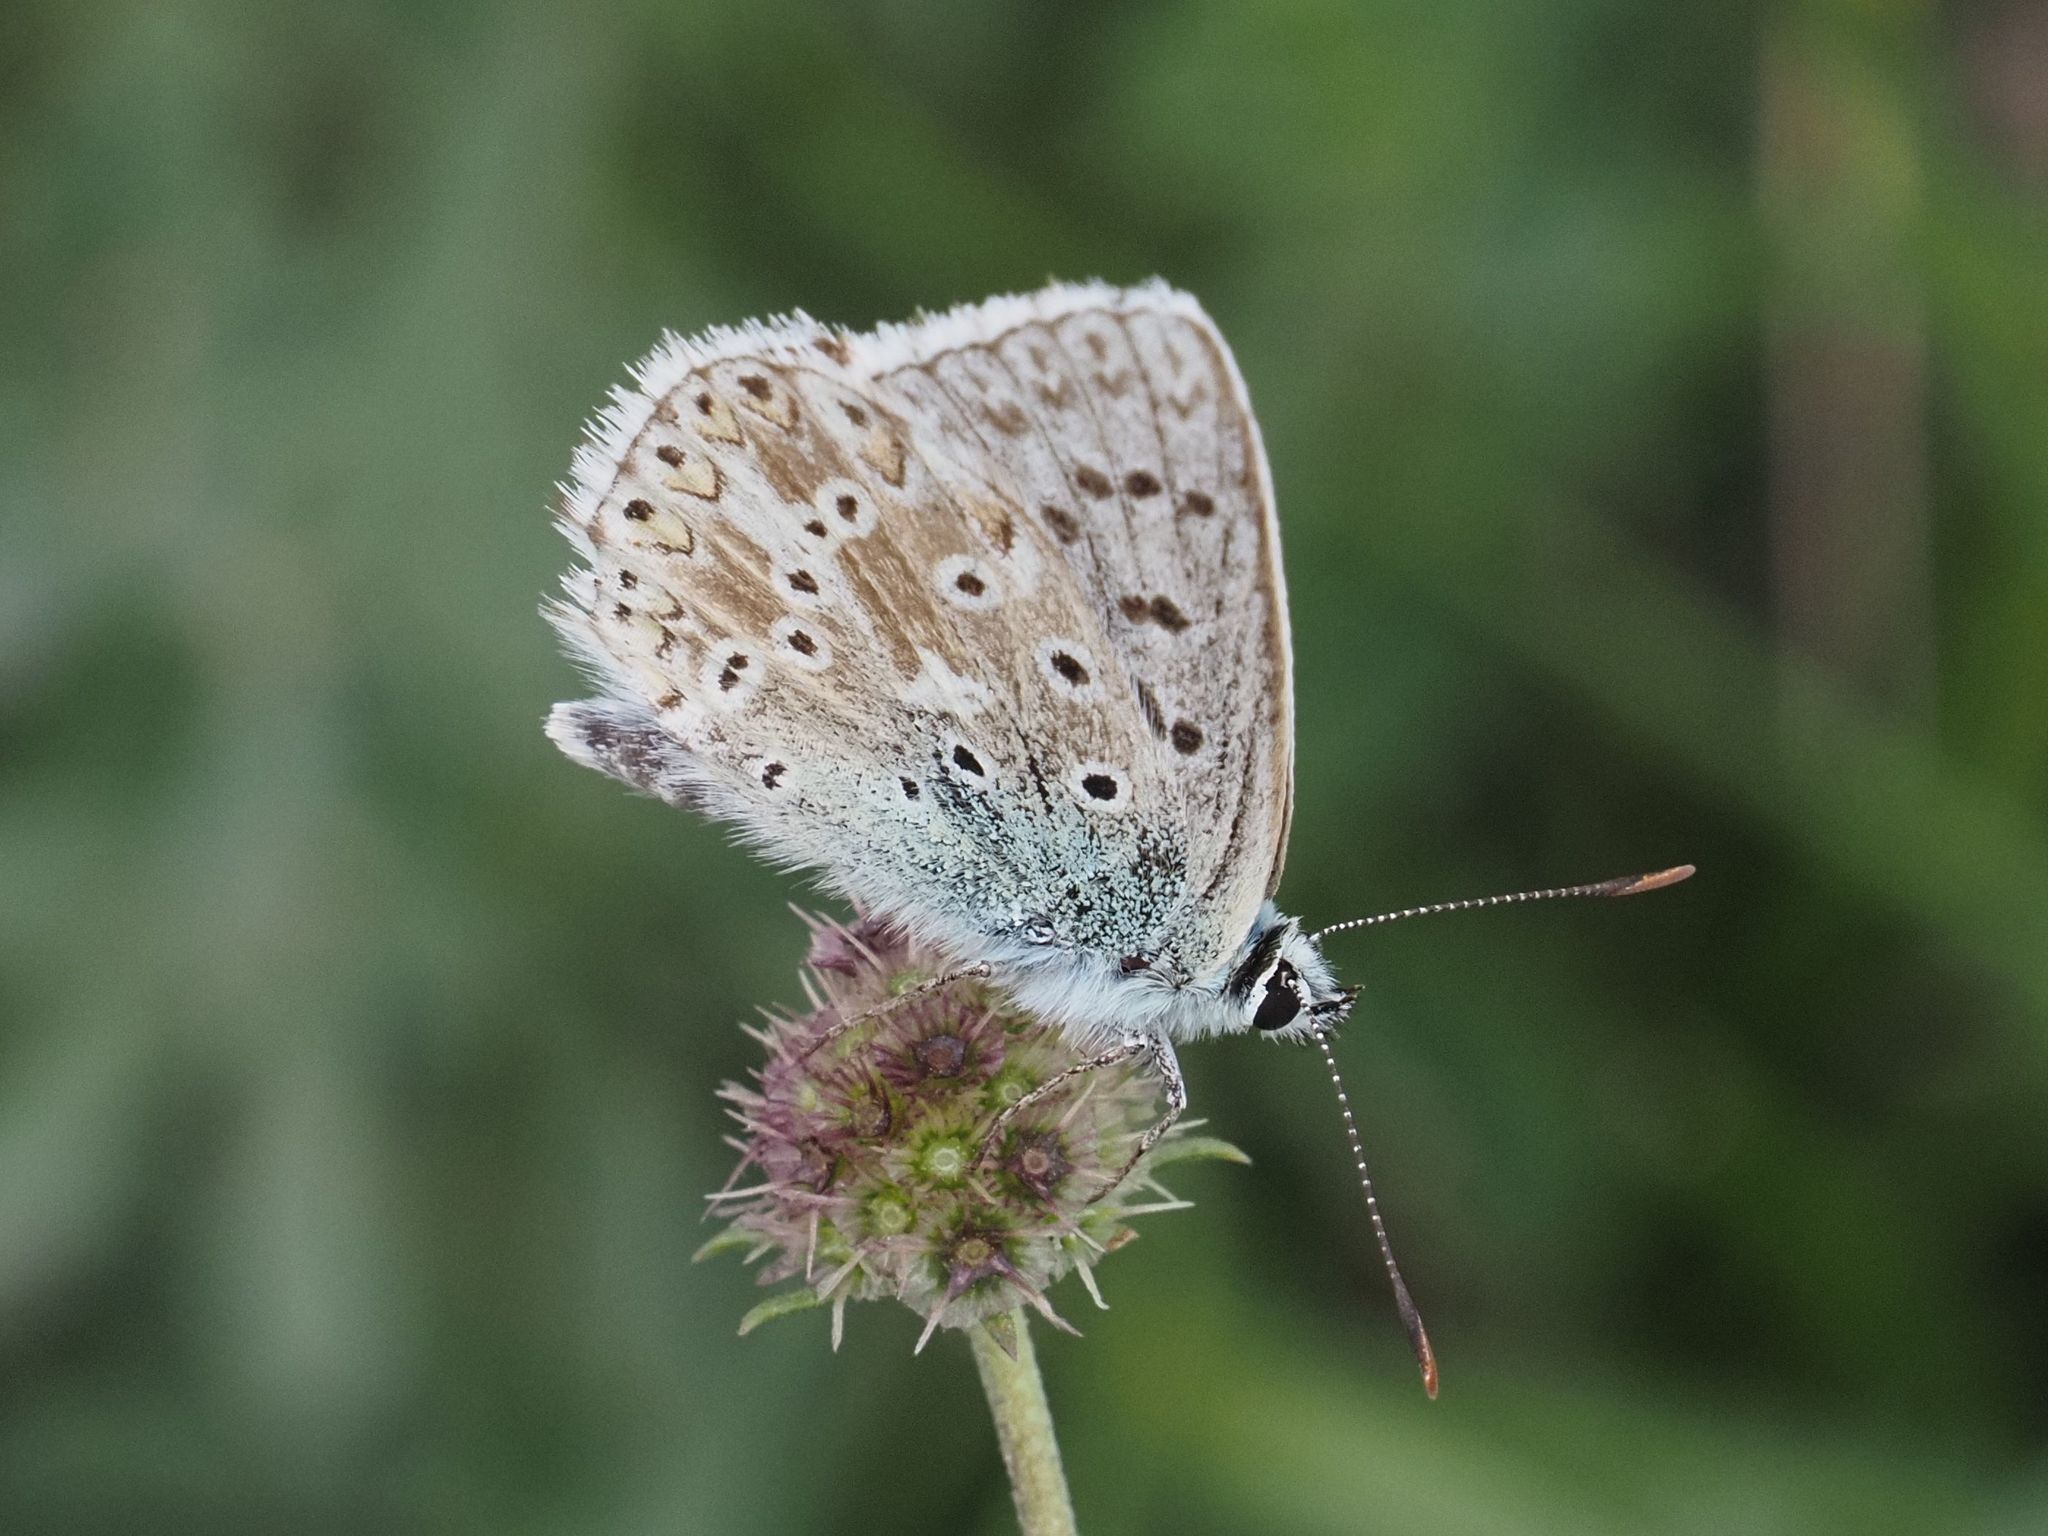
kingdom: Animalia
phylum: Arthropoda
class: Insecta
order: Lepidoptera
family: Lycaenidae
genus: Lysandra
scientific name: Lysandra coridon
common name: Chalkhill blue
